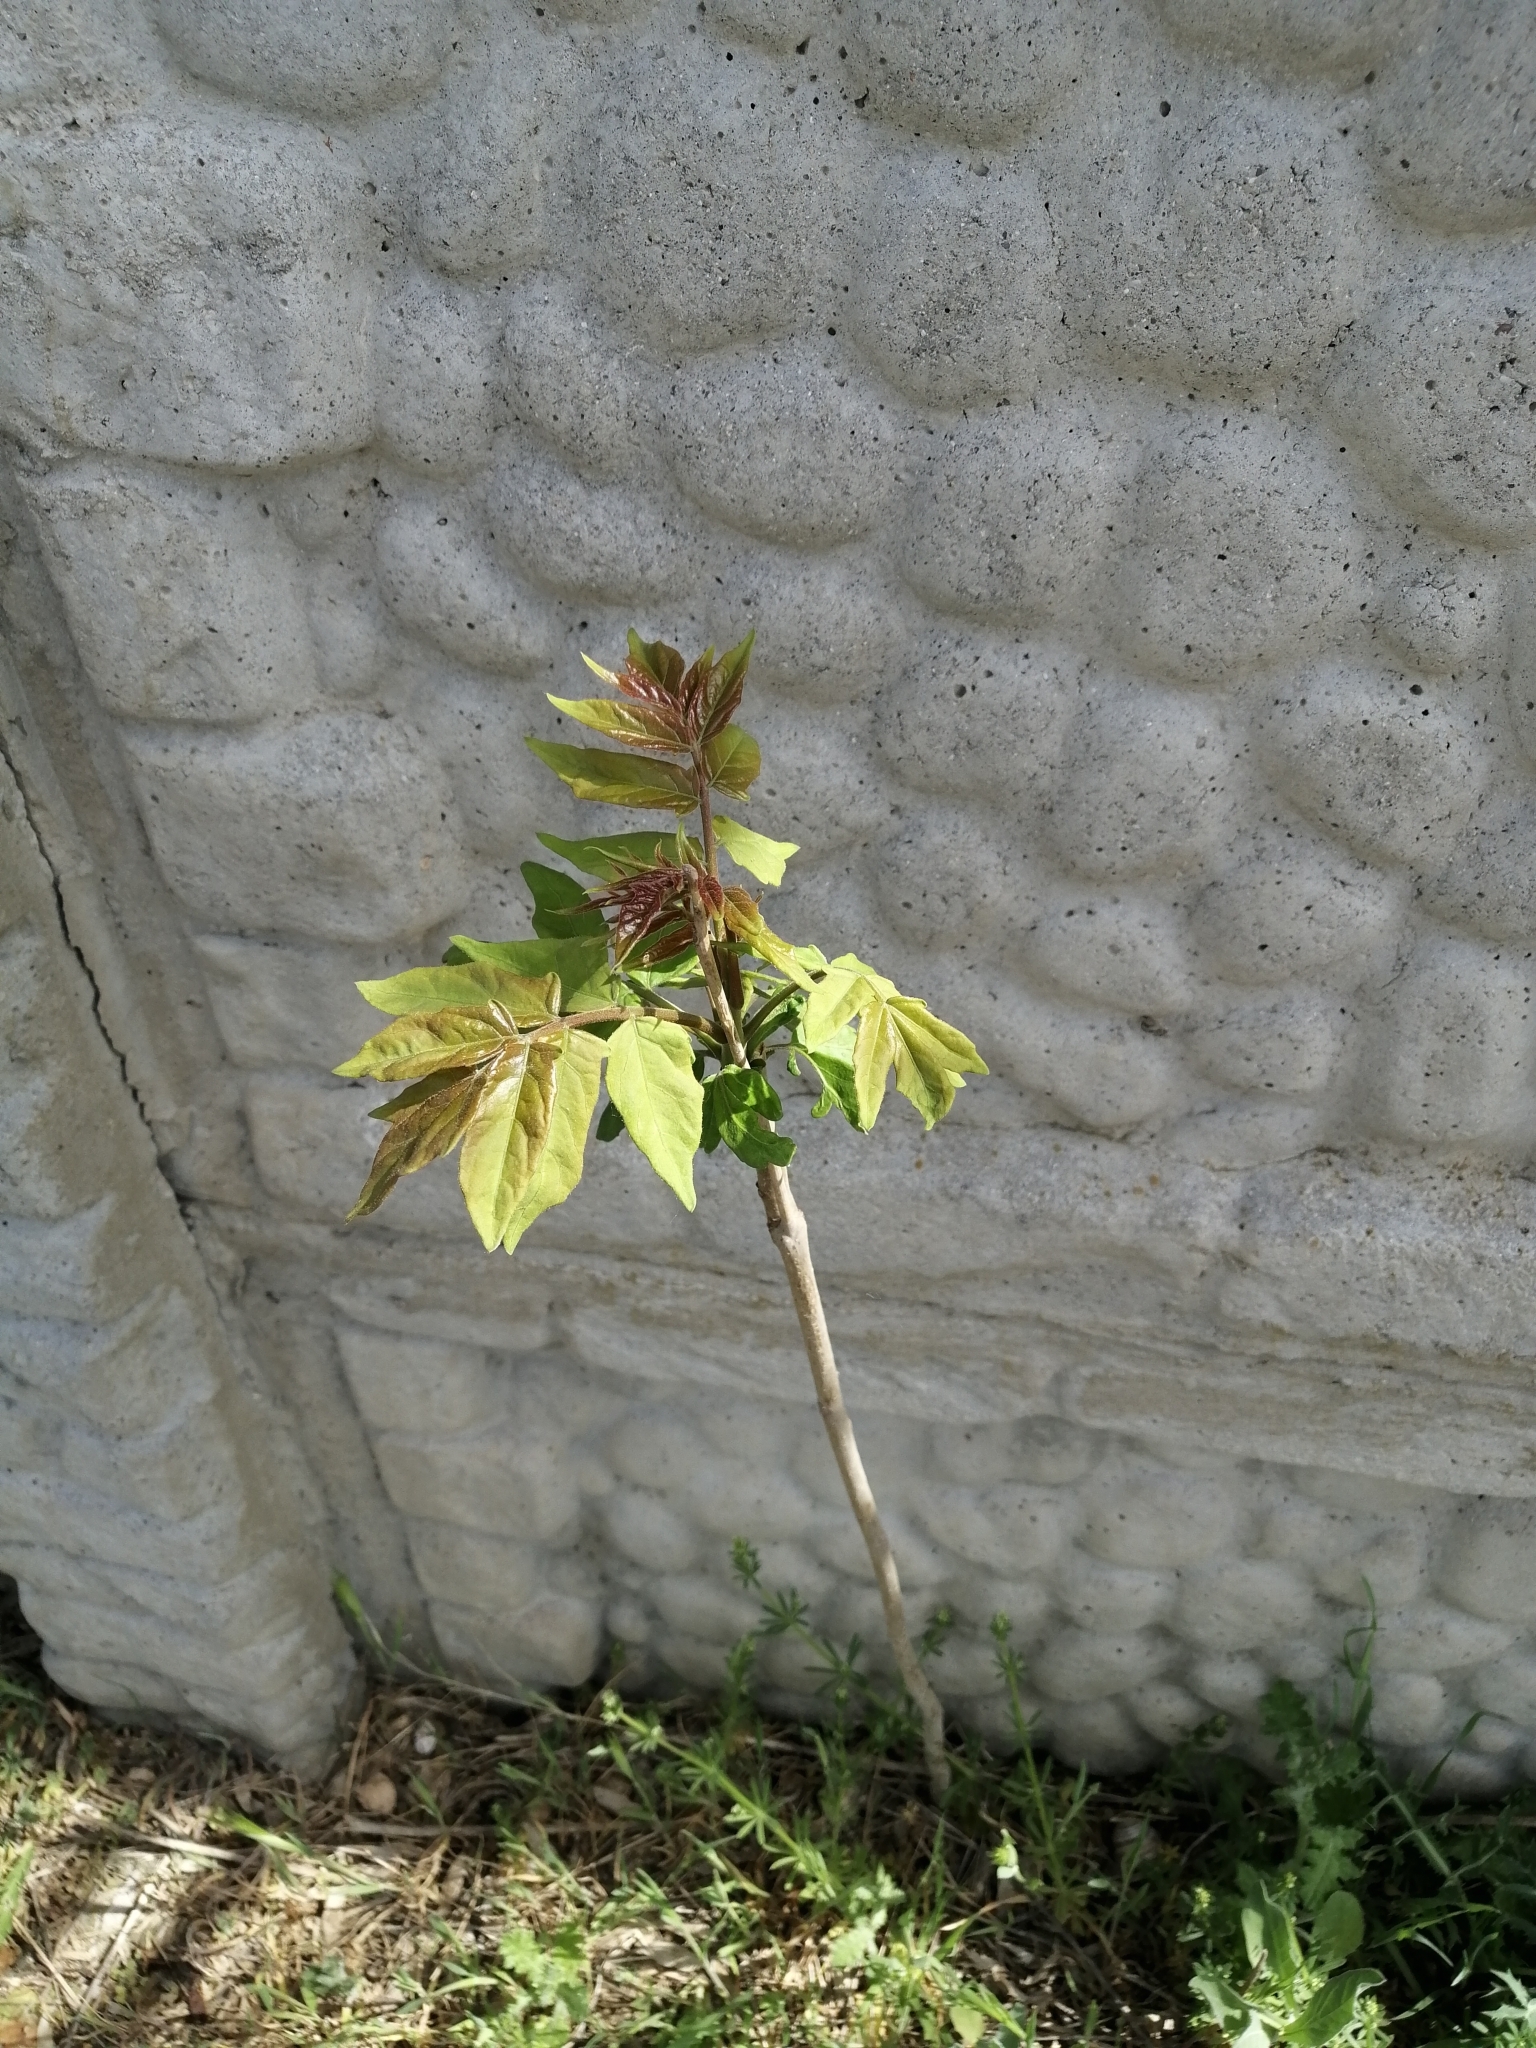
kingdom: Plantae
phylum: Tracheophyta
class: Magnoliopsida
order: Sapindales
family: Simaroubaceae
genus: Ailanthus
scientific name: Ailanthus altissima
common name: Tree-of-heaven
